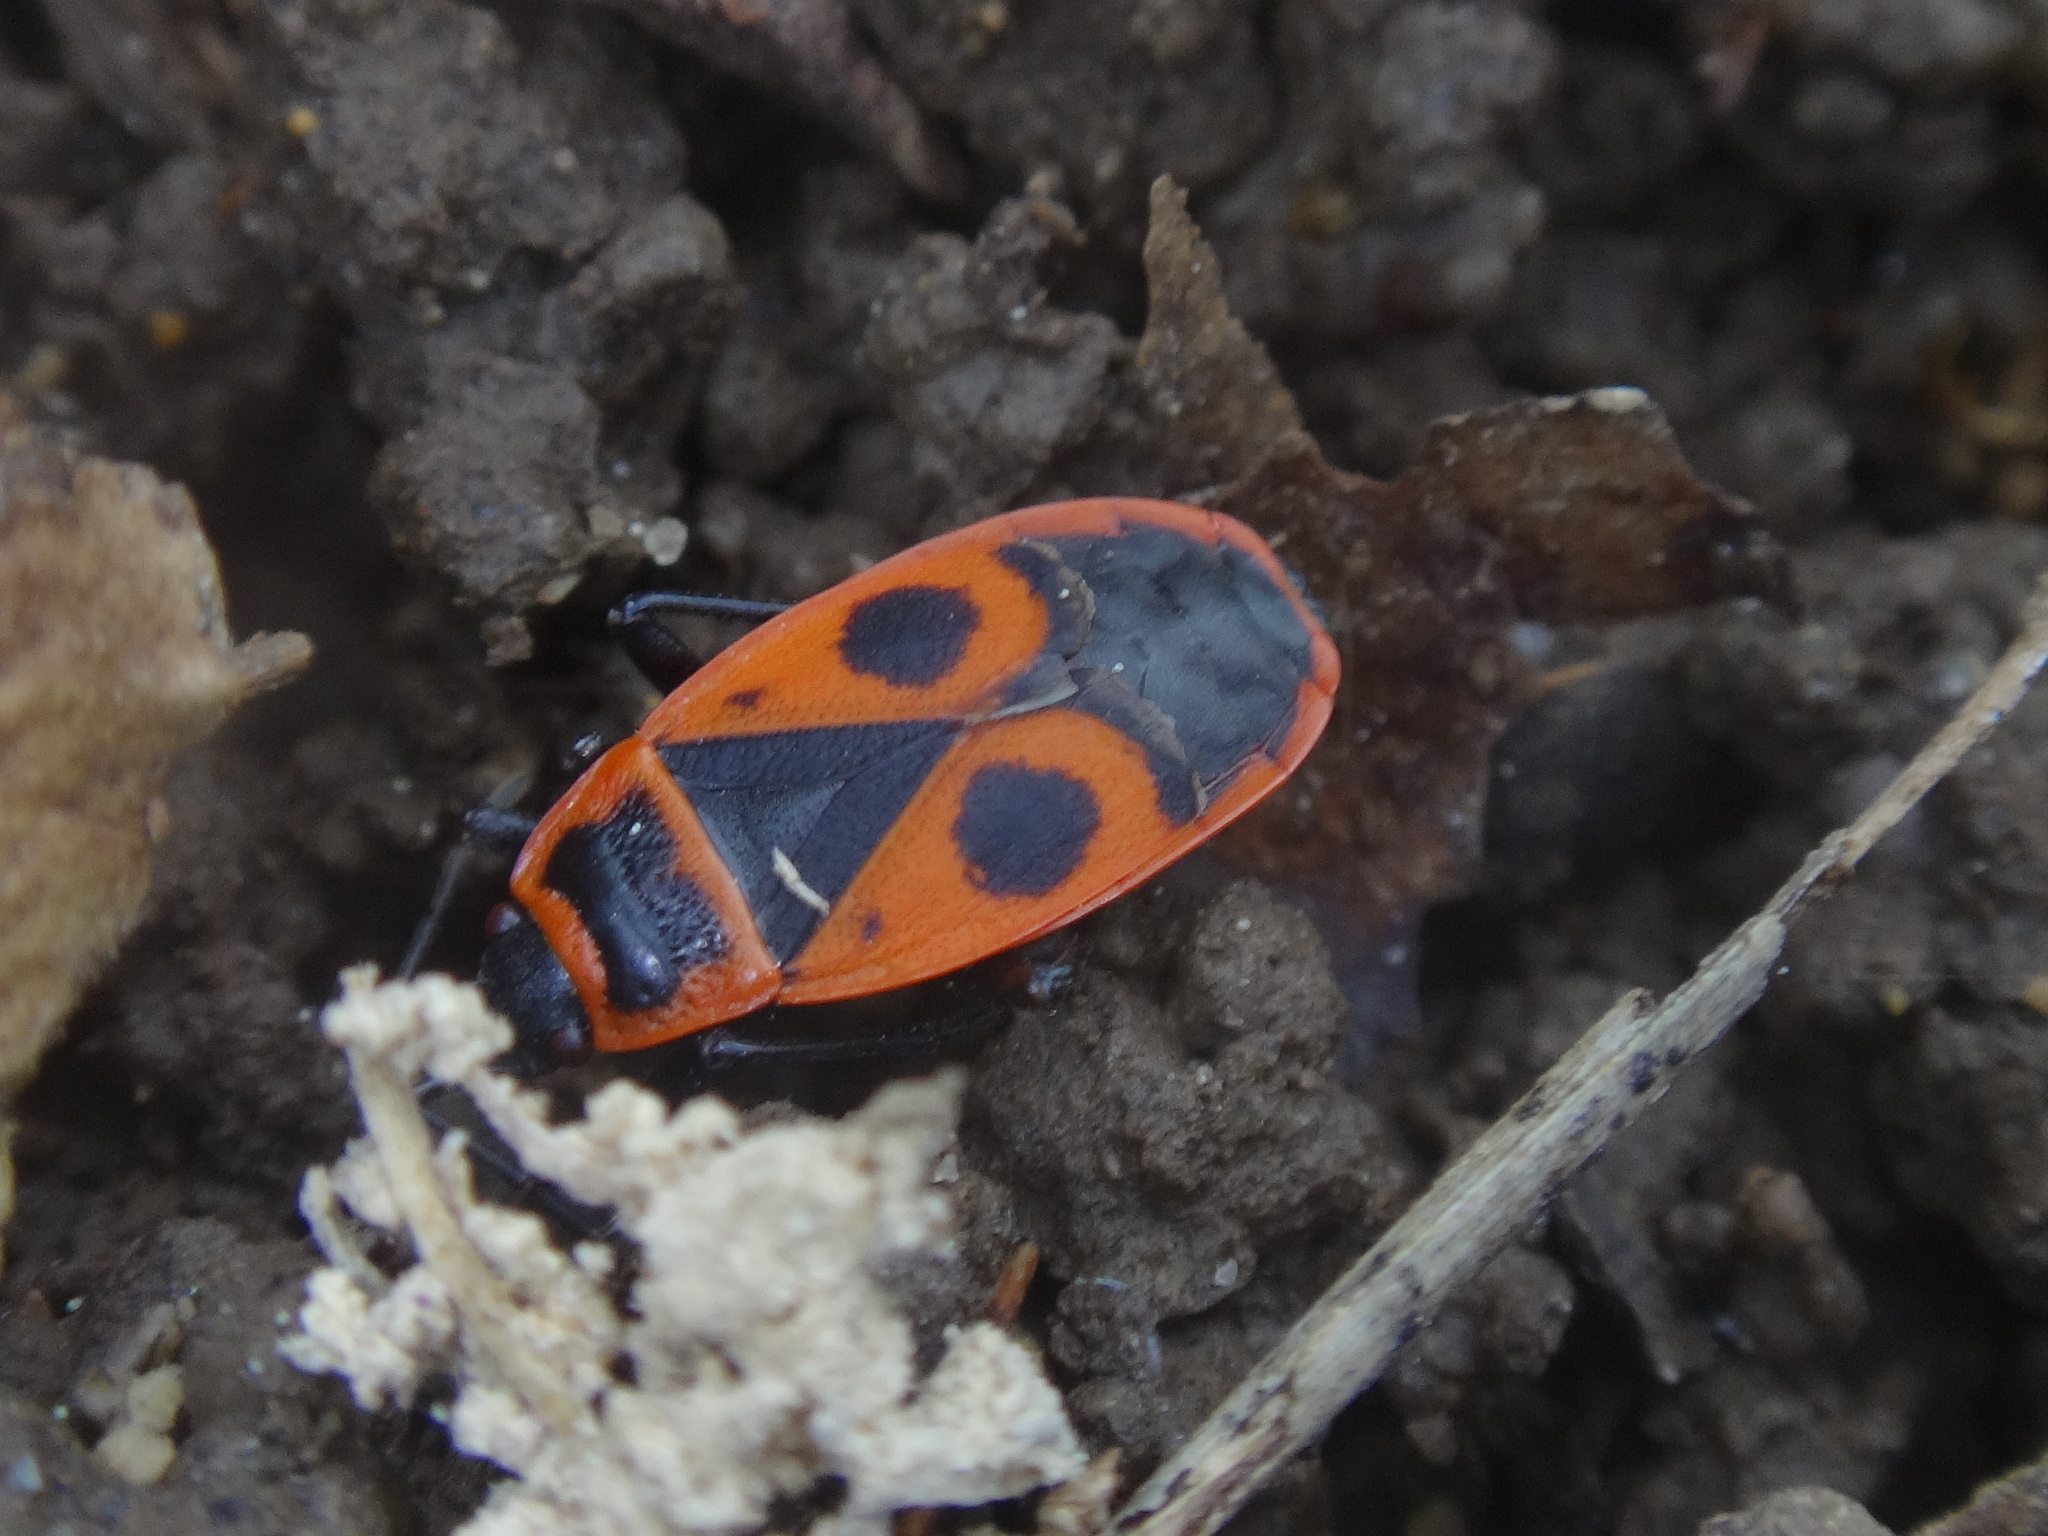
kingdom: Animalia
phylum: Arthropoda
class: Insecta
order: Hemiptera
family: Pyrrhocoridae
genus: Pyrrhocoris
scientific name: Pyrrhocoris apterus
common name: Firebug
